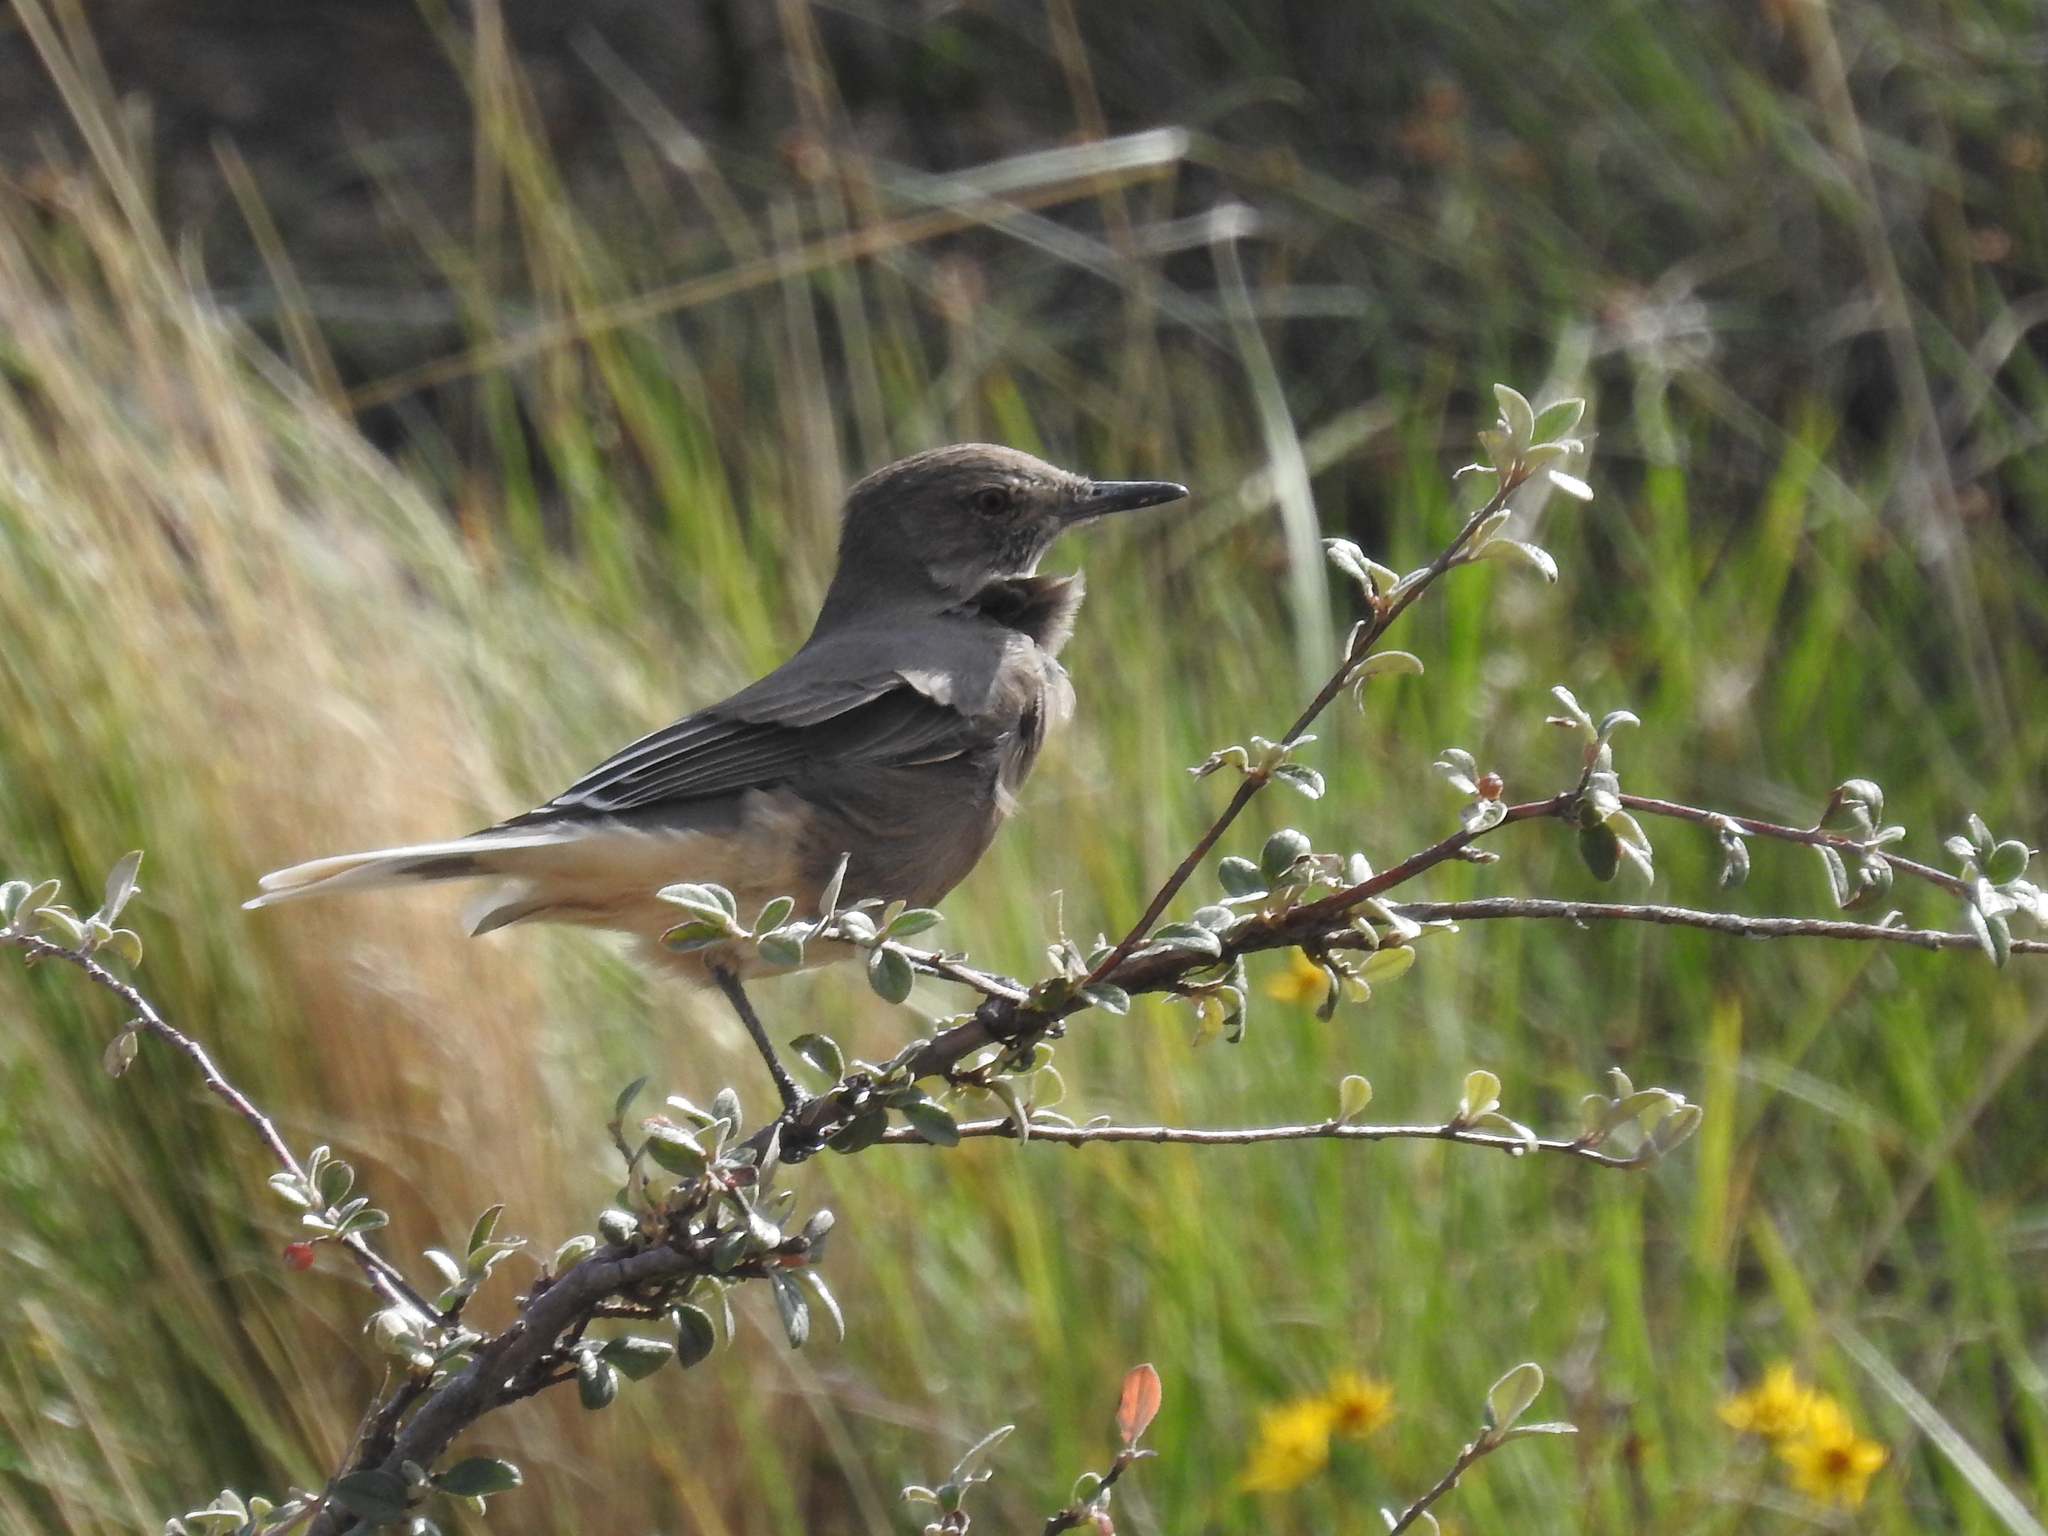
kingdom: Animalia
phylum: Chordata
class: Aves
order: Passeriformes
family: Tyrannidae
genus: Agriornis
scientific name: Agriornis montanus
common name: Black-billed shrike-tyrant
